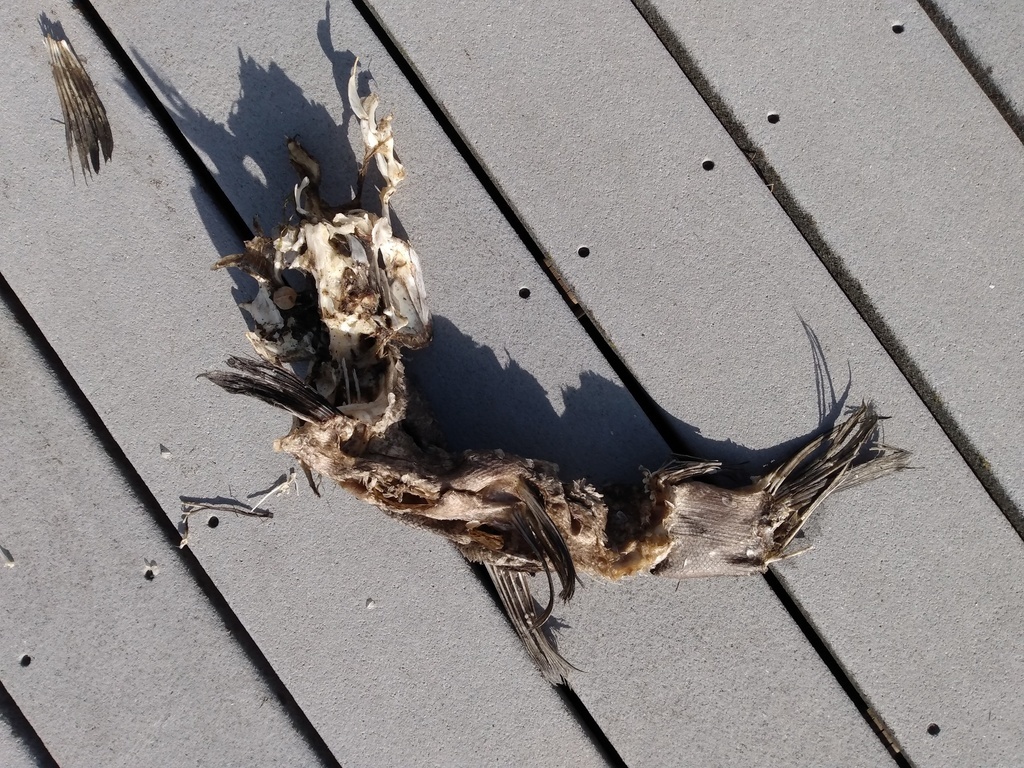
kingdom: Animalia
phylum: Chordata
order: Cypriniformes
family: Cyprinidae
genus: Tinca
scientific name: Tinca tinca
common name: Tench
